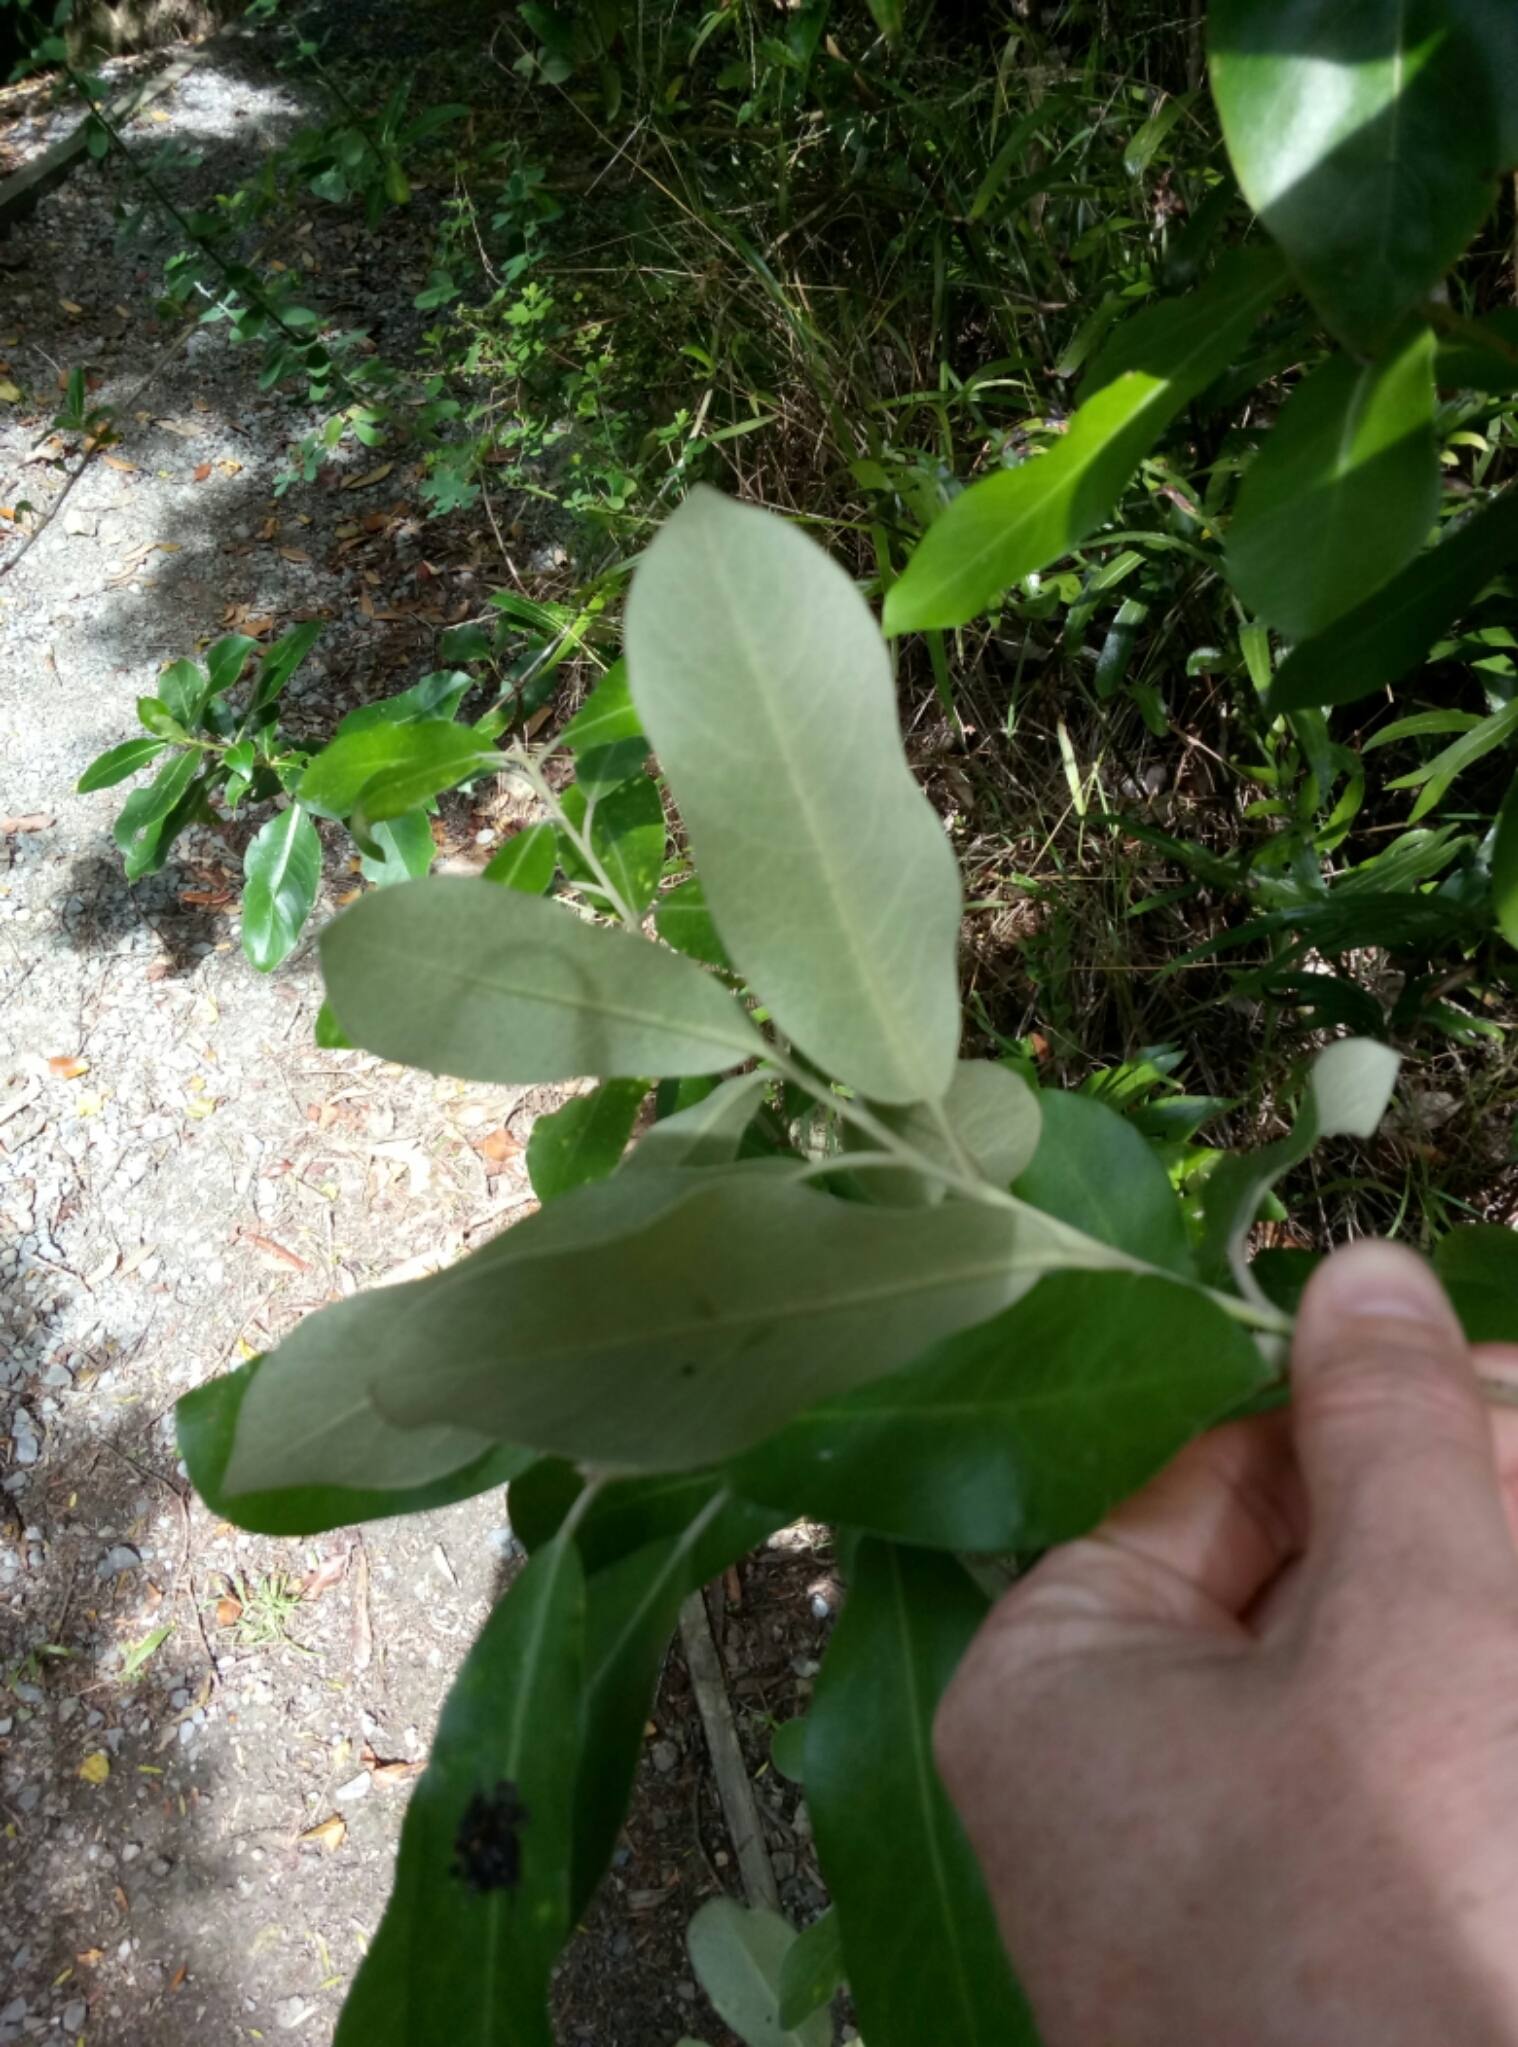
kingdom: Plantae
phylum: Tracheophyta
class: Magnoliopsida
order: Apiales
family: Pittosporaceae
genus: Pittosporum
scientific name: Pittosporum ralphii
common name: Ralph's desertwillow
